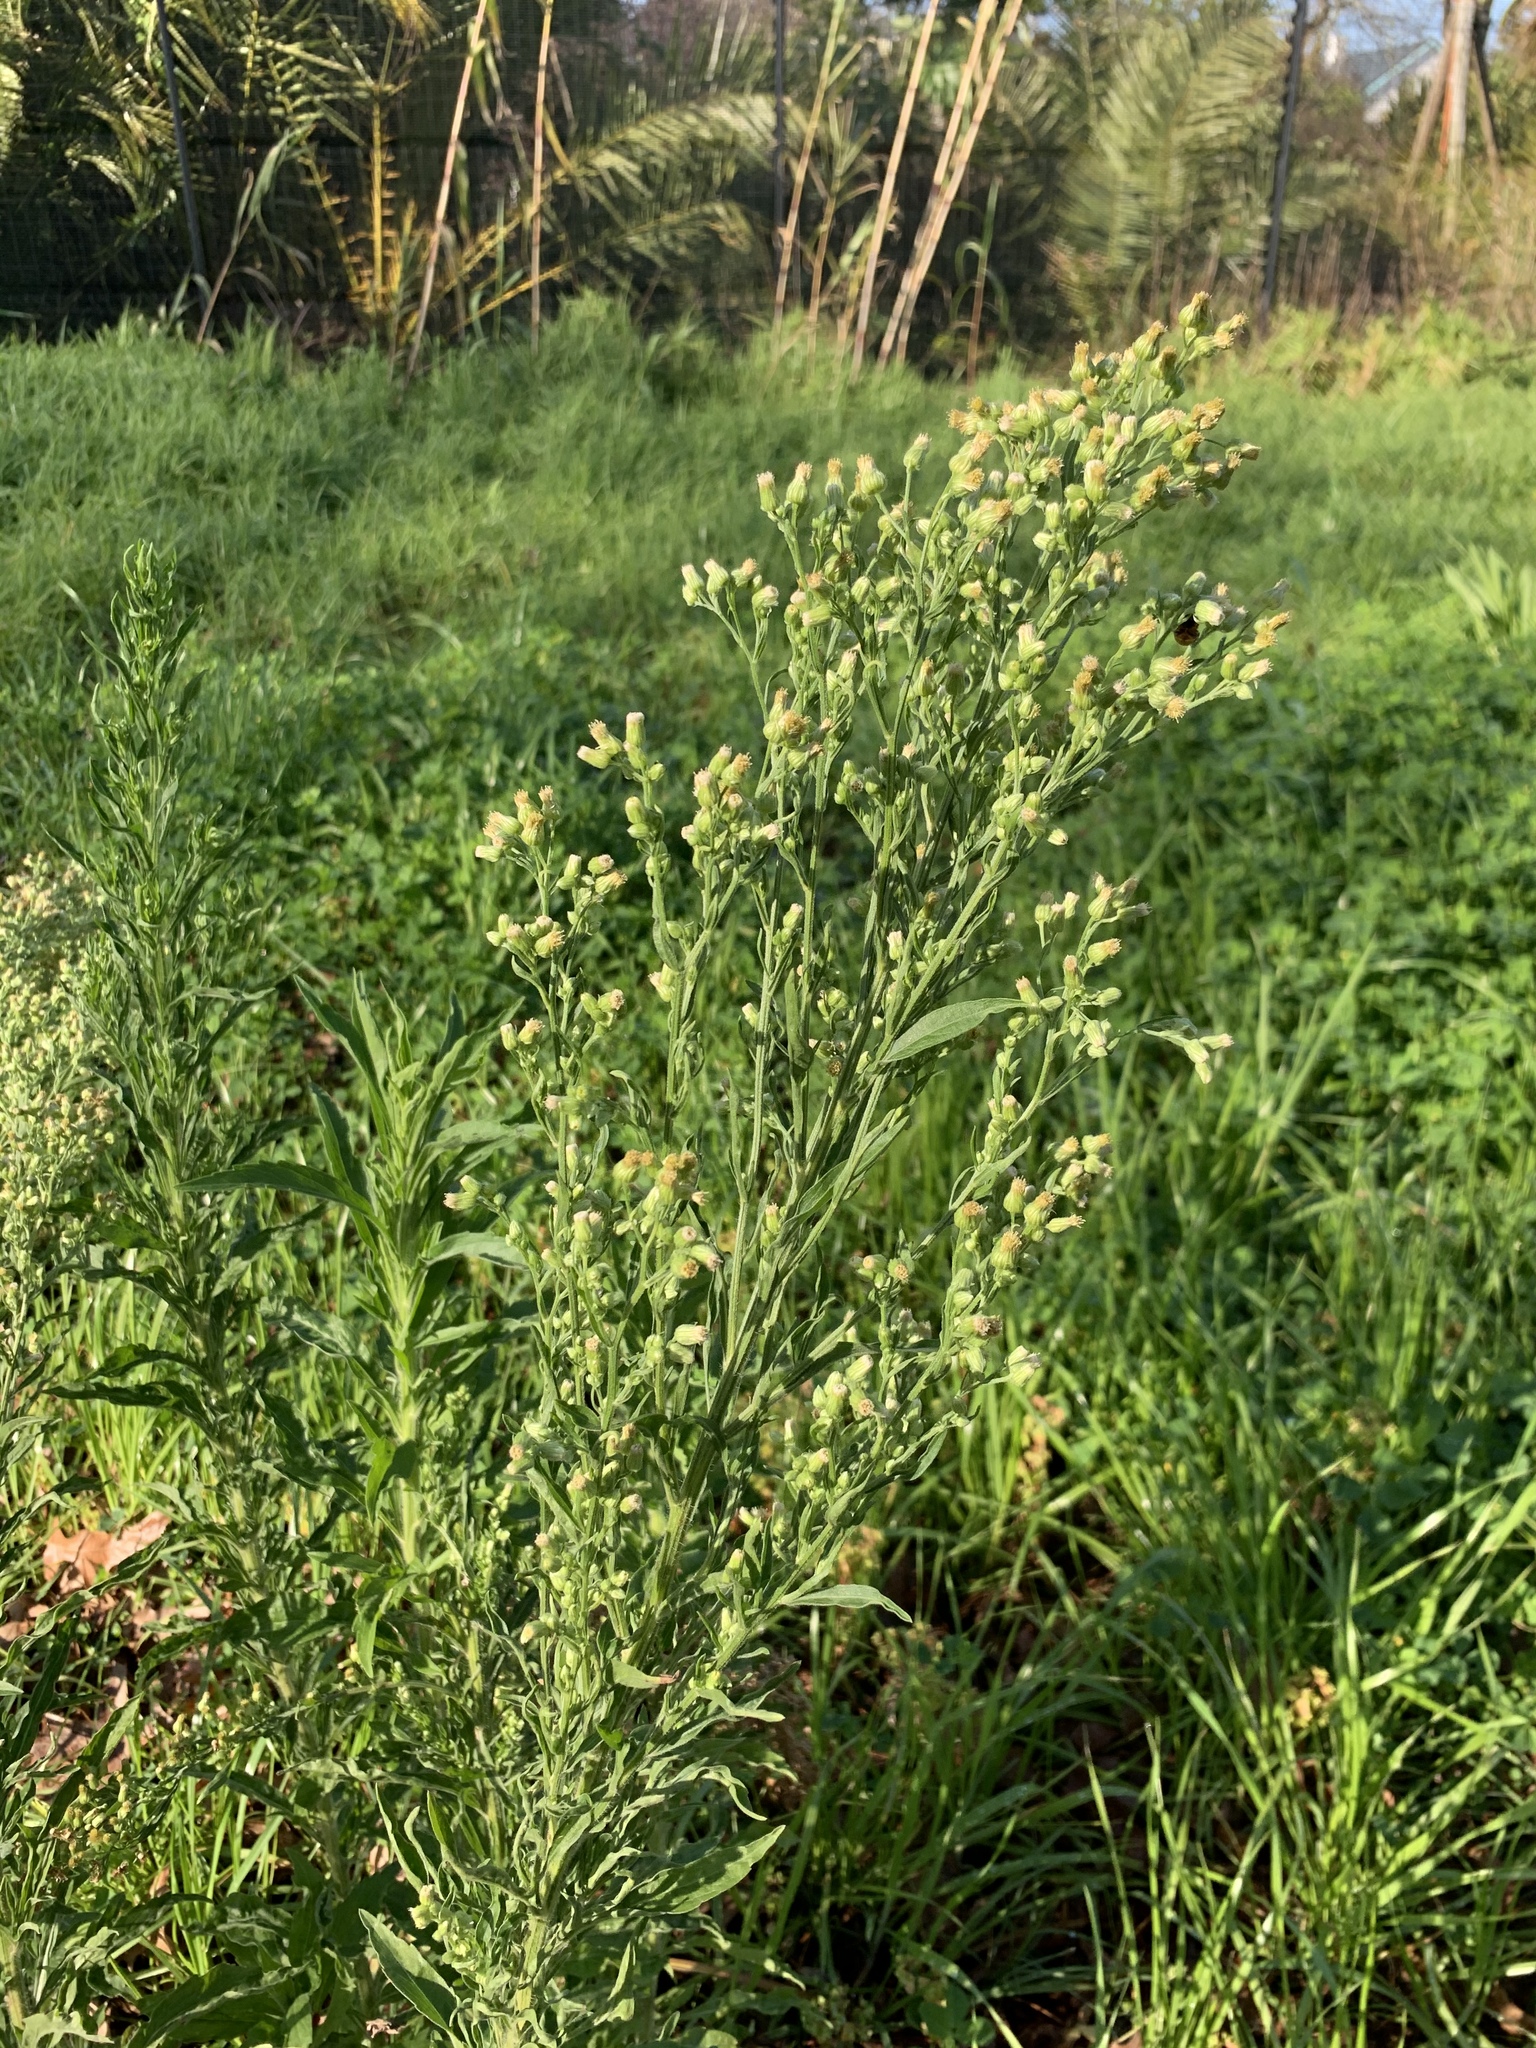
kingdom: Plantae
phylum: Tracheophyta
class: Magnoliopsida
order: Asterales
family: Asteraceae
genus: Erigeron
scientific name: Erigeron sumatrensis
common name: Daisy
